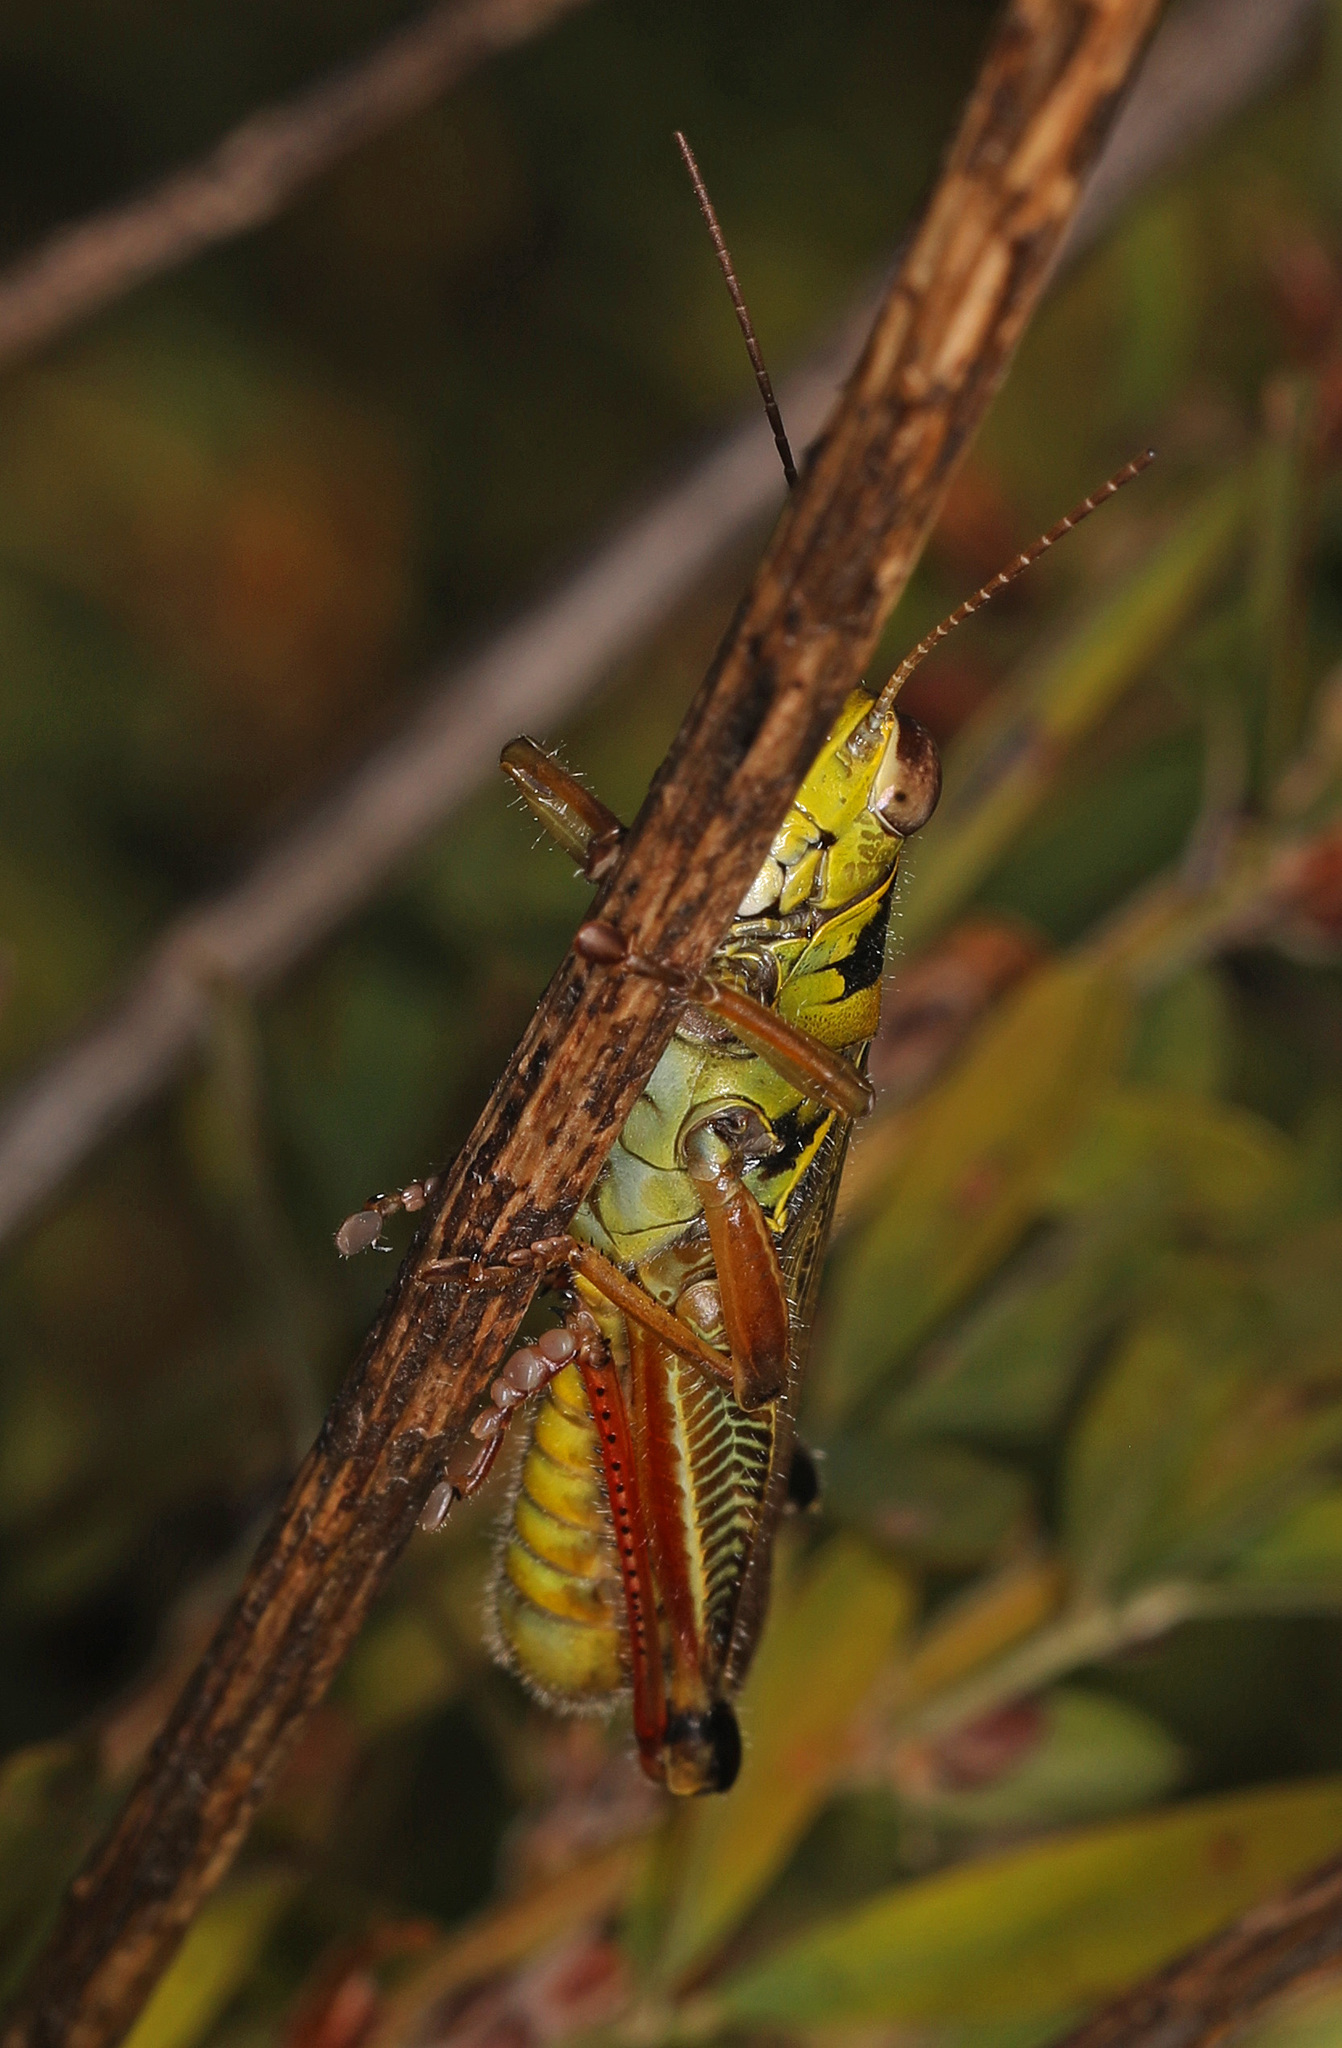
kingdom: Animalia
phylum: Arthropoda
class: Insecta
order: Orthoptera
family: Acrididae
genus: Melanoplus
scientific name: Melanoplus femurrubrum
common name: Red-legged grasshopper
